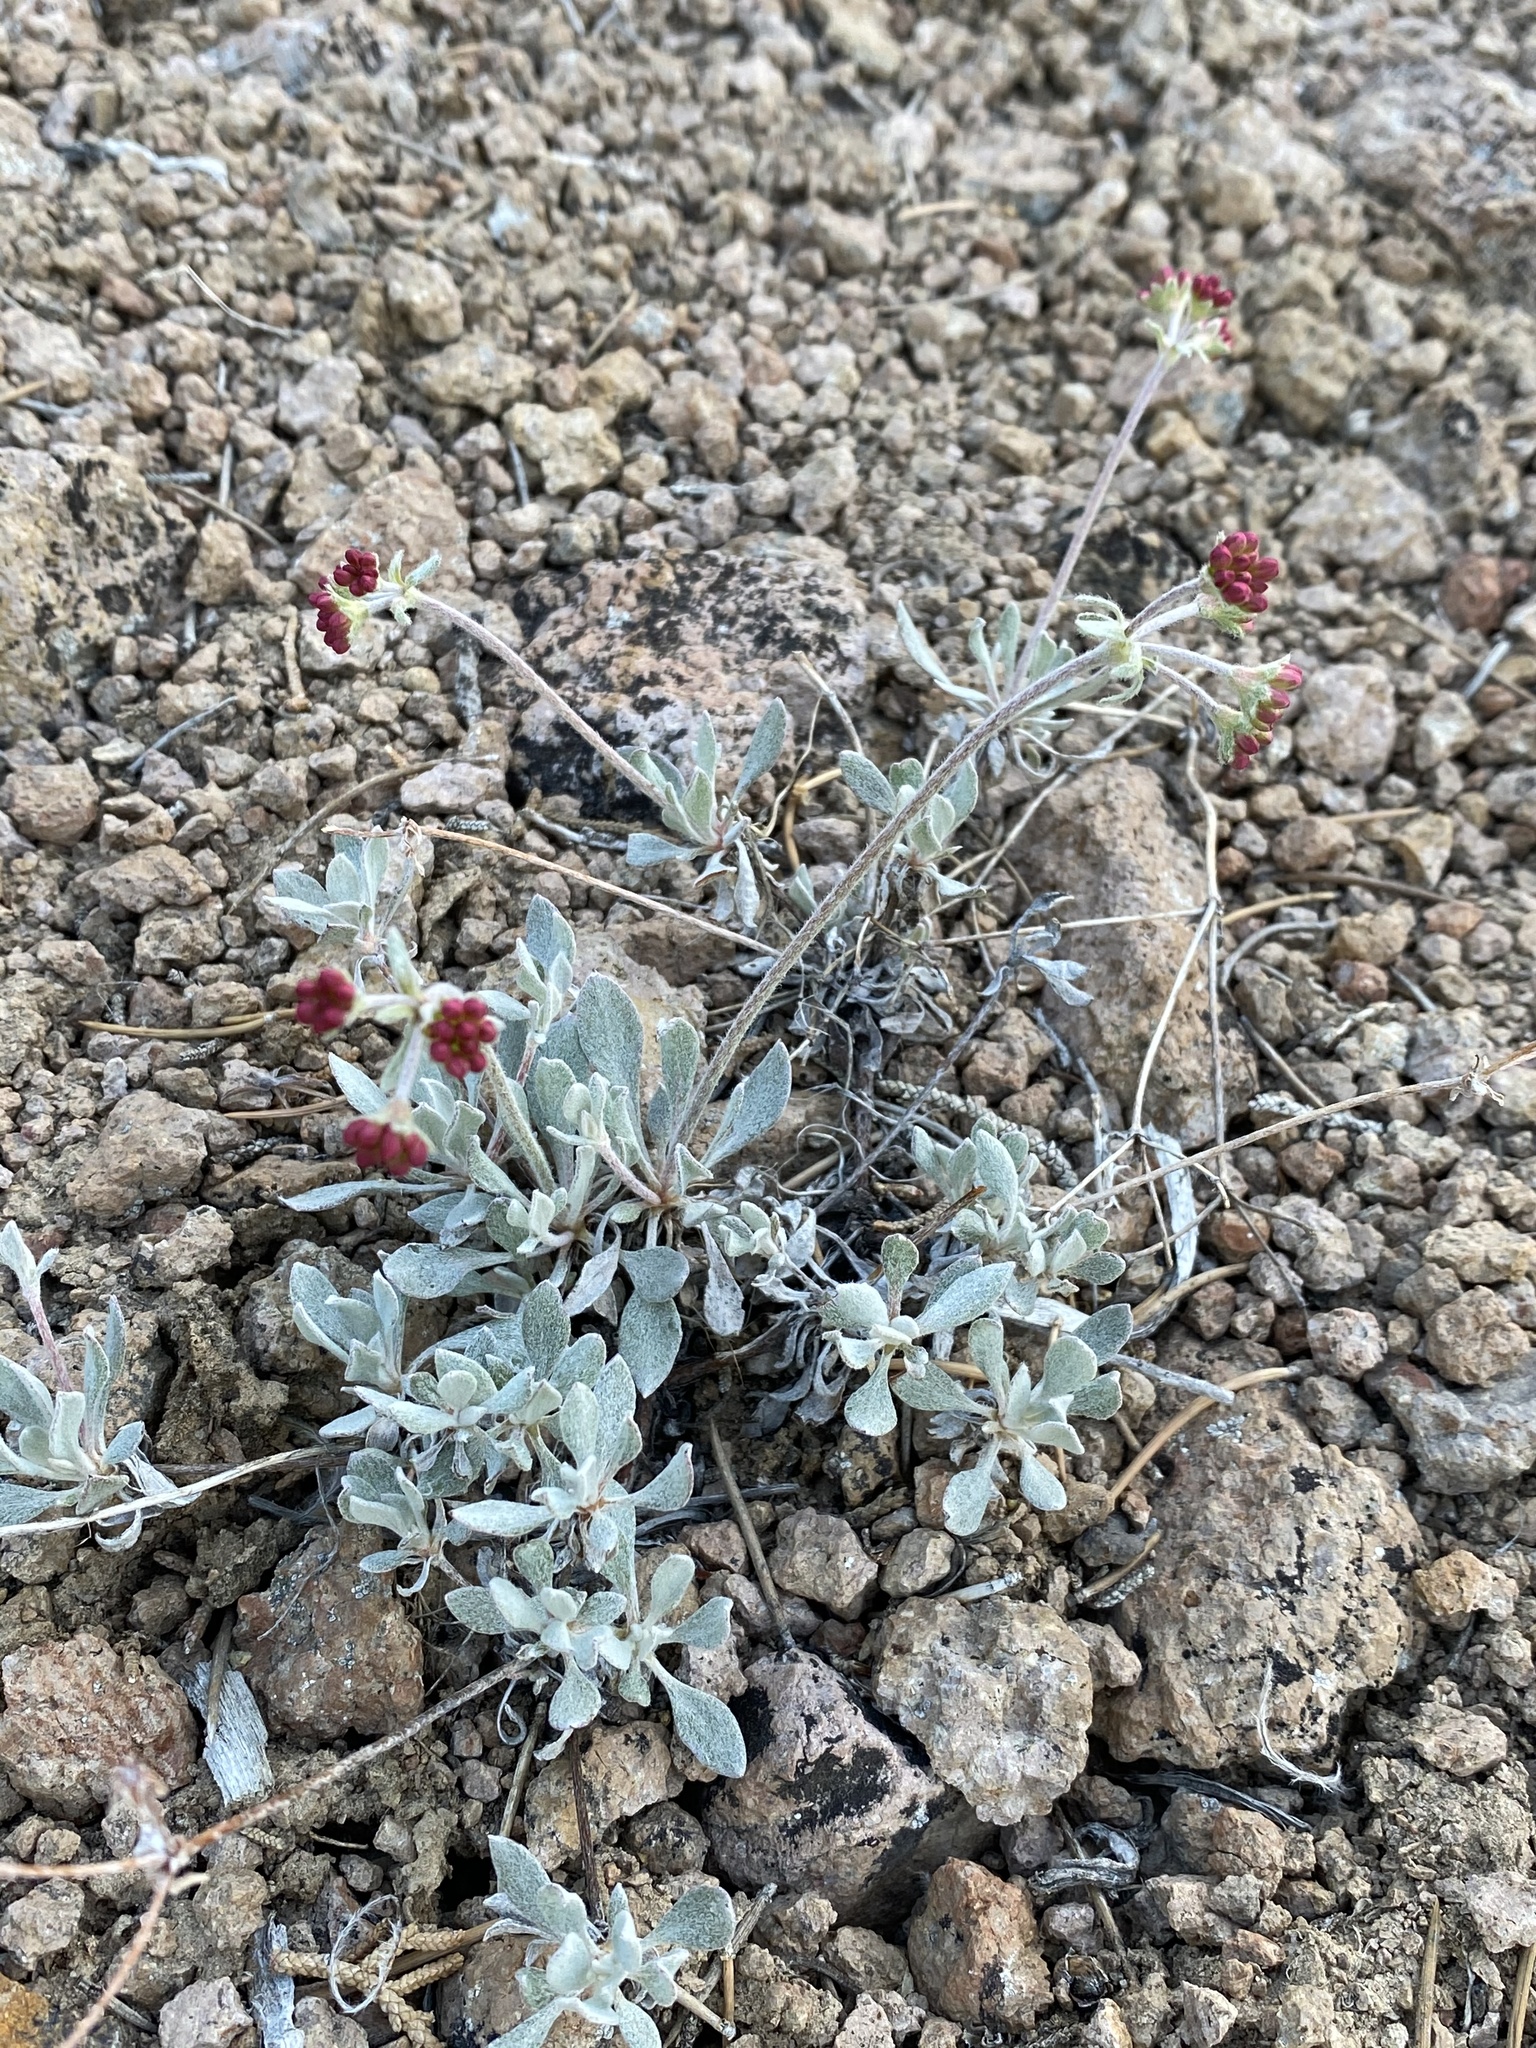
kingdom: Plantae
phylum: Tracheophyta
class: Magnoliopsida
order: Caryophyllales
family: Polygonaceae
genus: Eriogonum
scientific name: Eriogonum umbellatum
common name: Sulfur-buckwheat
